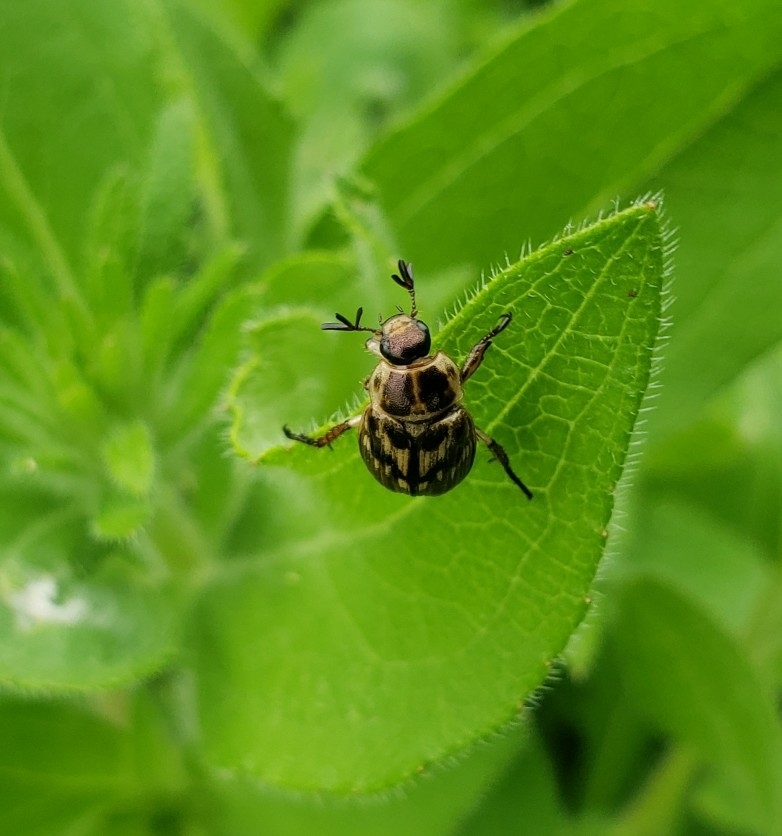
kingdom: Animalia
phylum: Arthropoda
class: Insecta
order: Coleoptera
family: Scarabaeidae
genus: Exomala
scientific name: Exomala orientalis
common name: Oriental beetle
